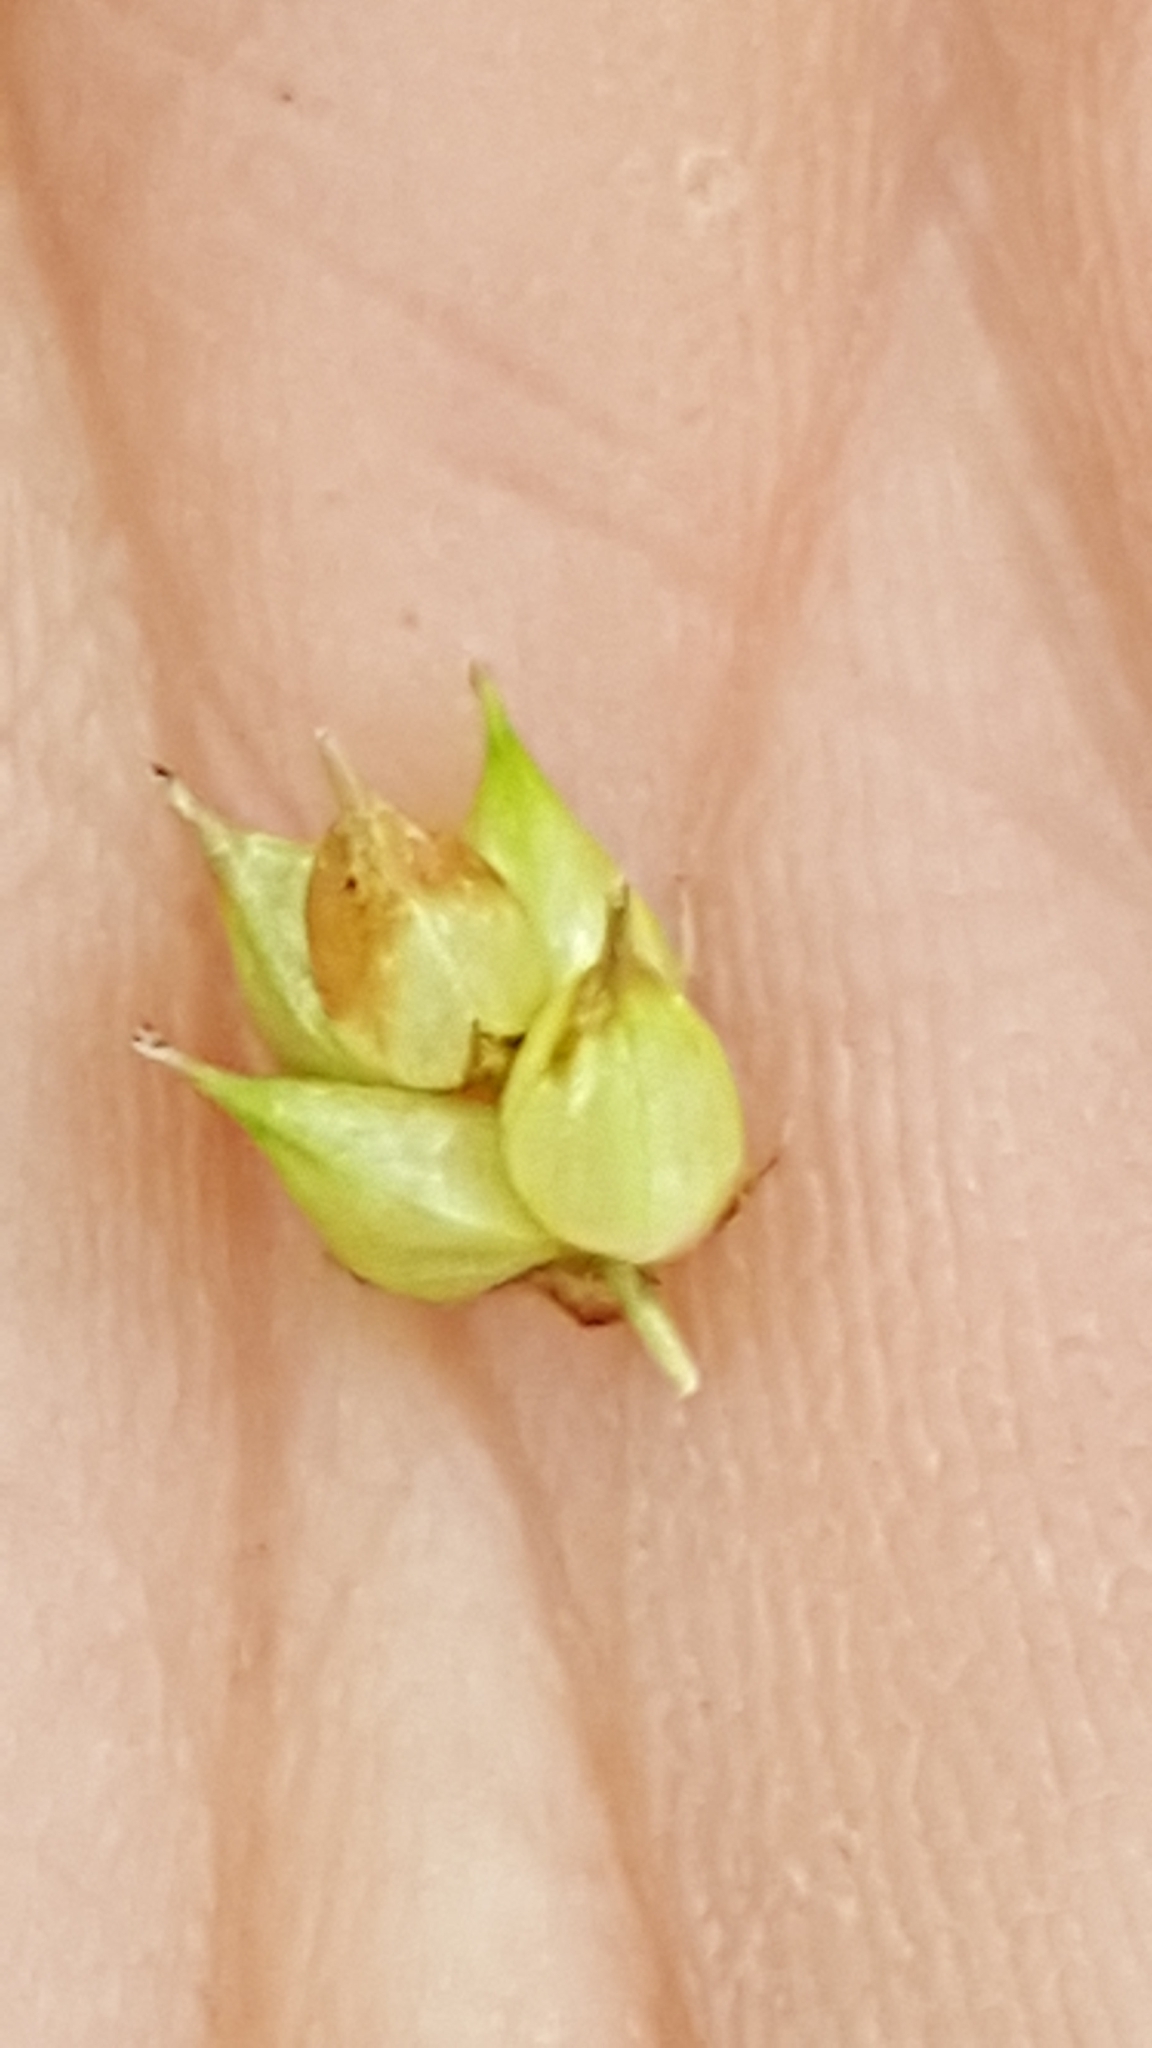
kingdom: Plantae
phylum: Tracheophyta
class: Liliopsida
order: Poales
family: Cyperaceae
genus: Carex
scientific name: Carex tuckermanii
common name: Tuckerman's sedge
